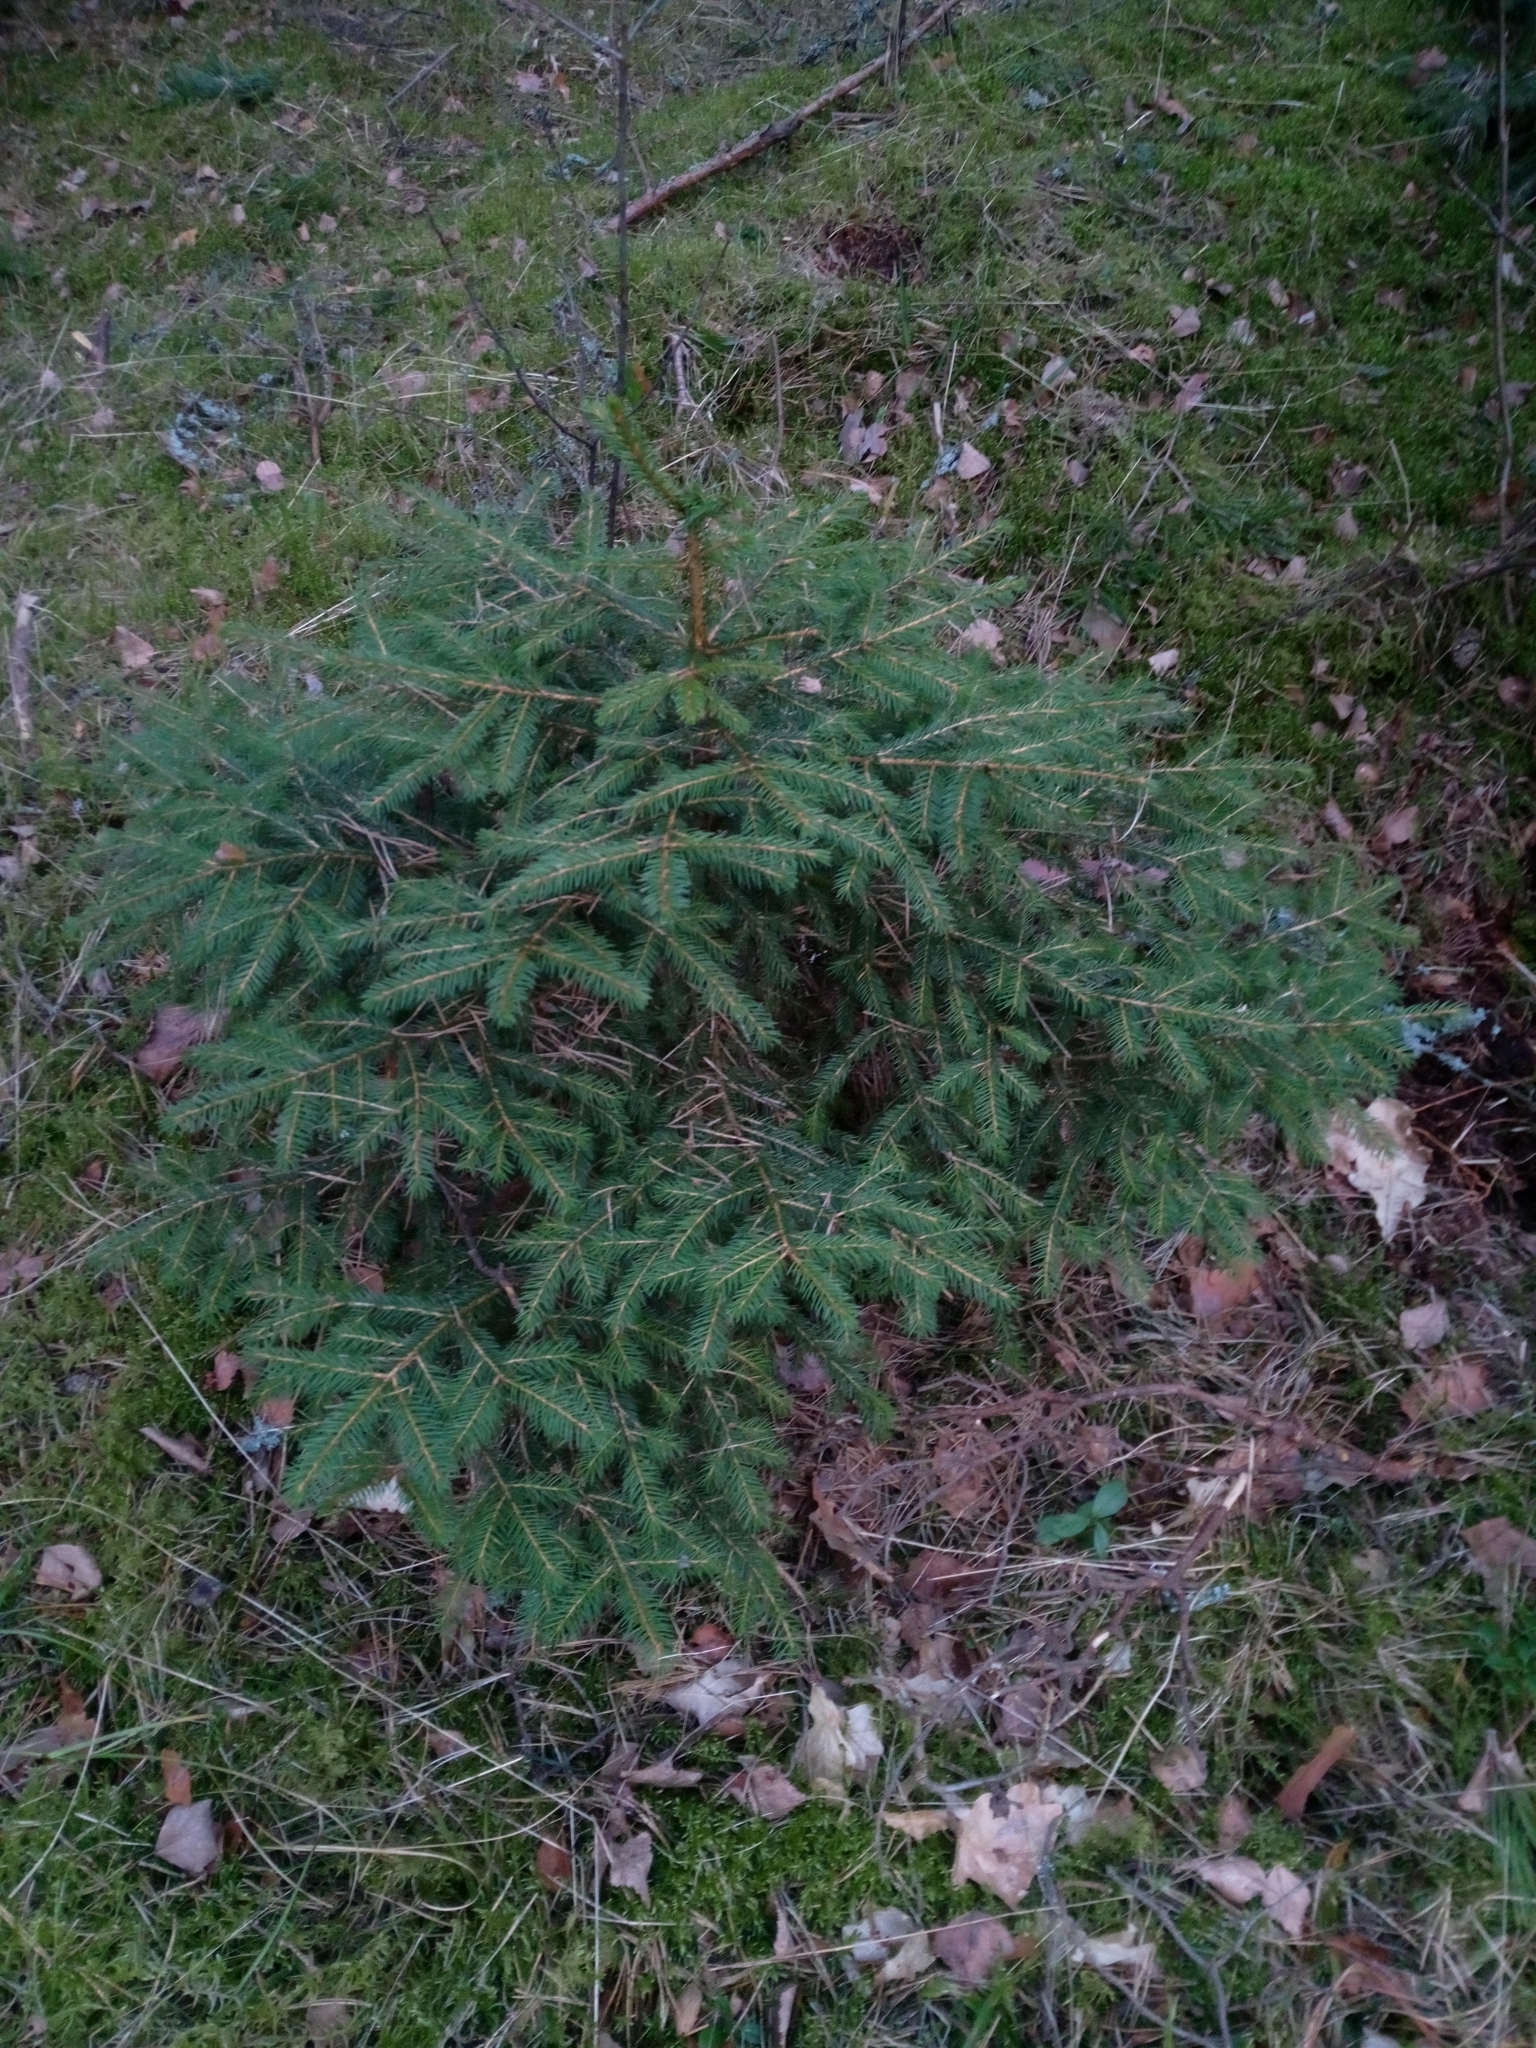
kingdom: Plantae
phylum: Tracheophyta
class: Pinopsida
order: Pinales
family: Pinaceae
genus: Picea
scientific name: Picea abies
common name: Norway spruce
